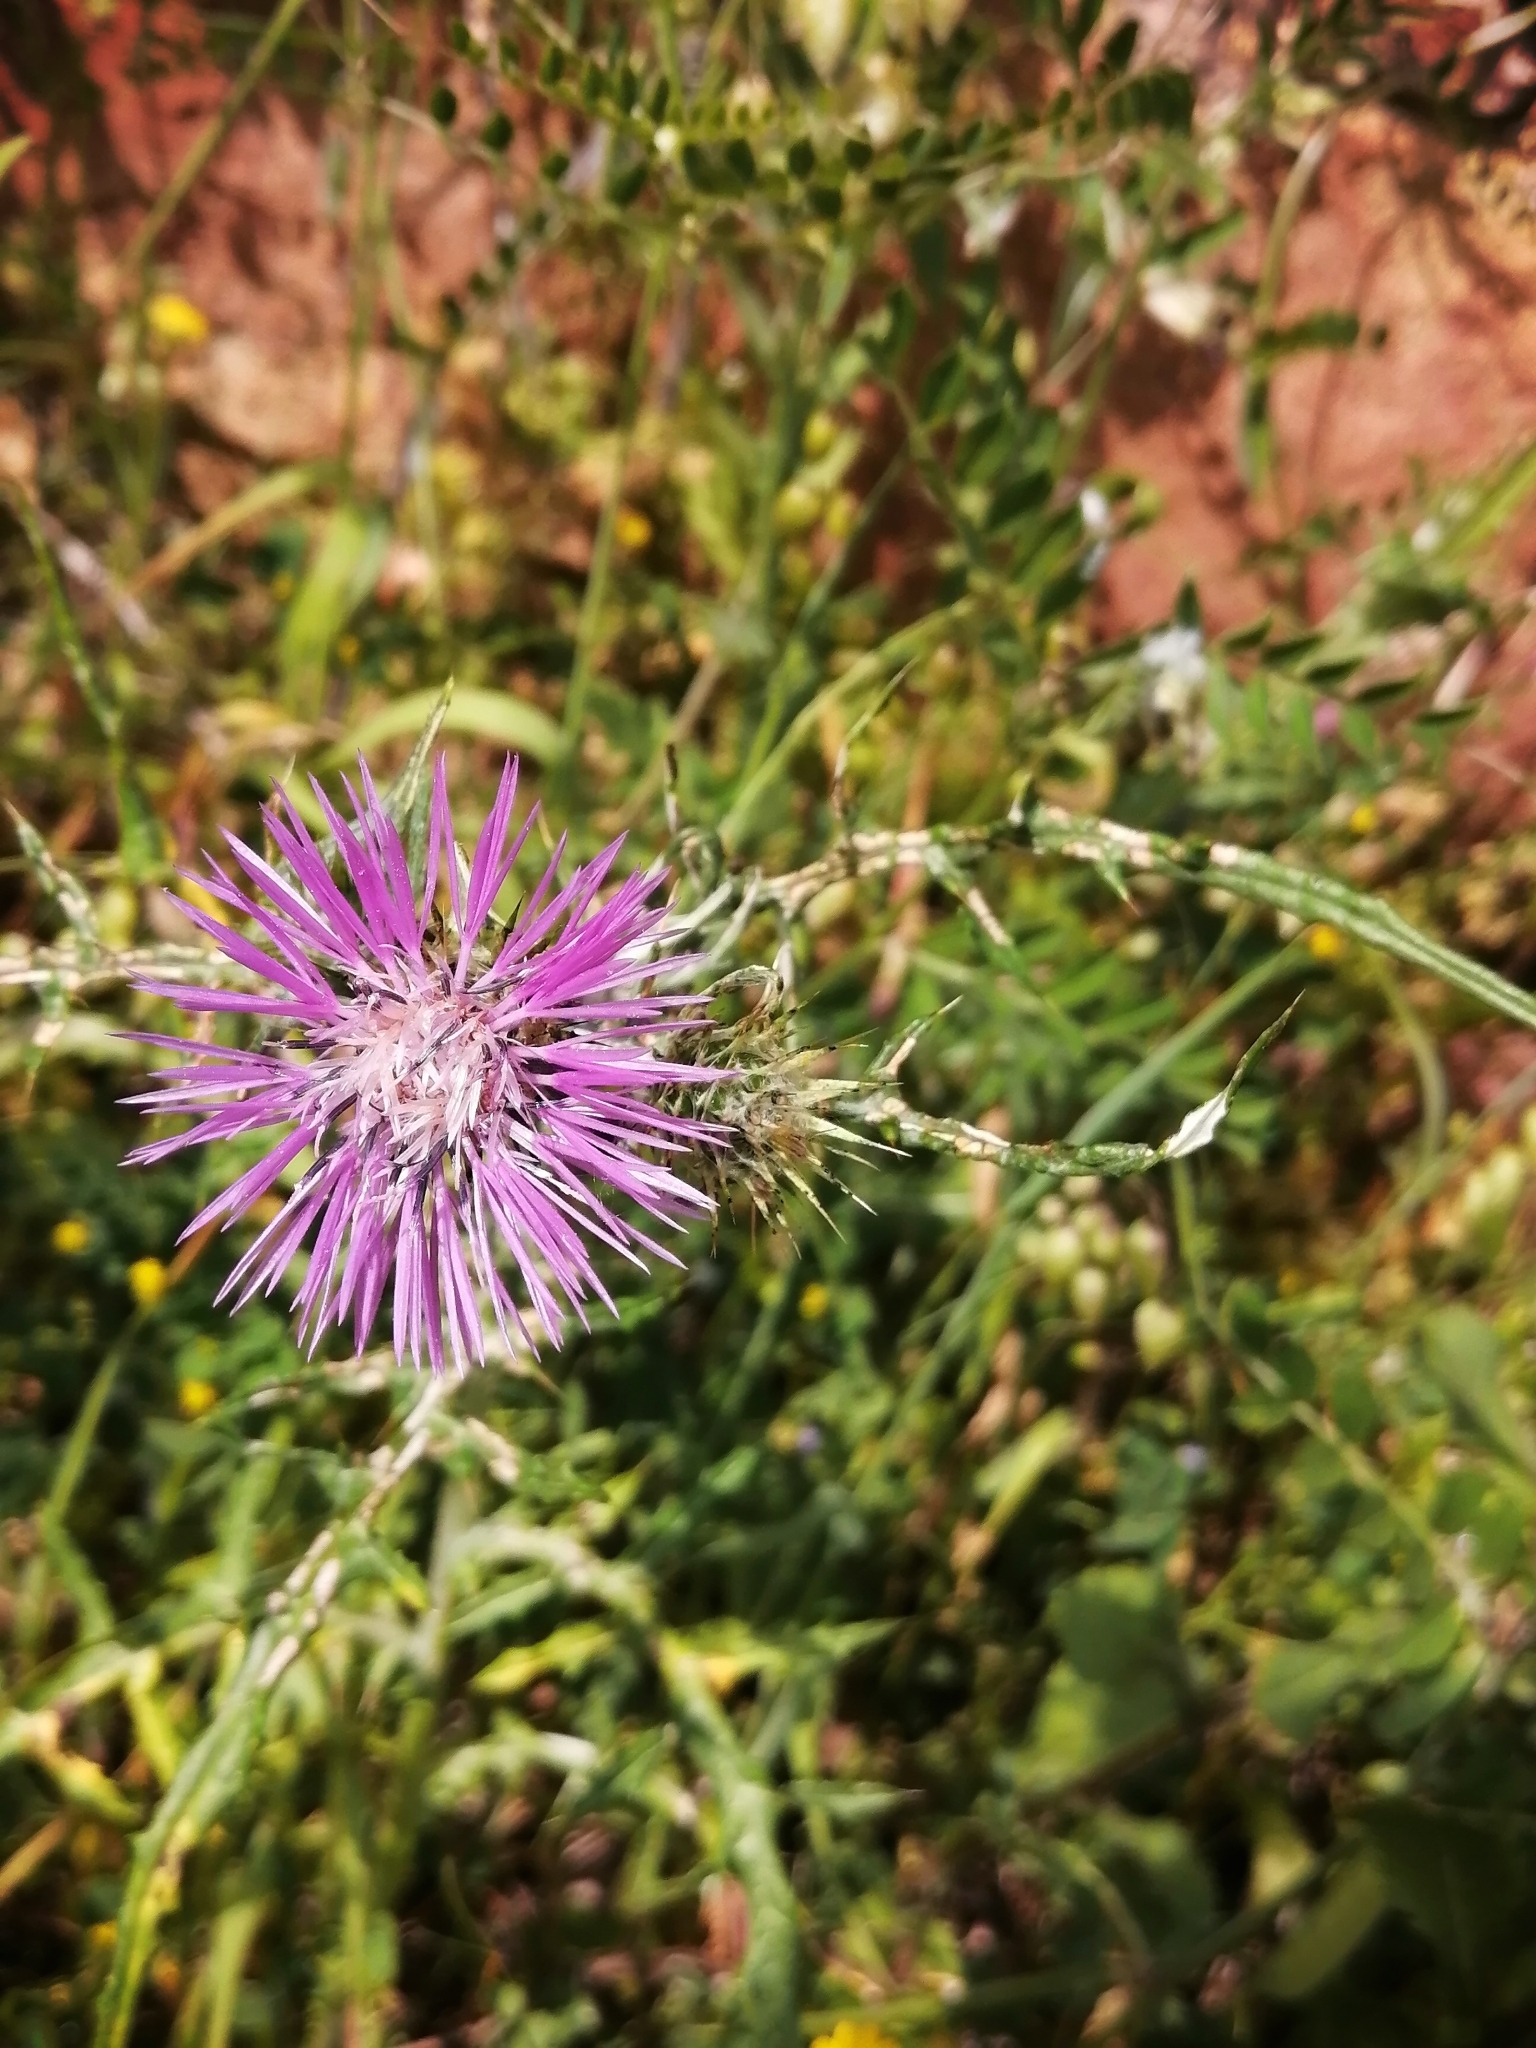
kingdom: Plantae
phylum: Tracheophyta
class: Magnoliopsida
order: Asterales
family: Asteraceae
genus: Galactites
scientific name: Galactites tomentosa
